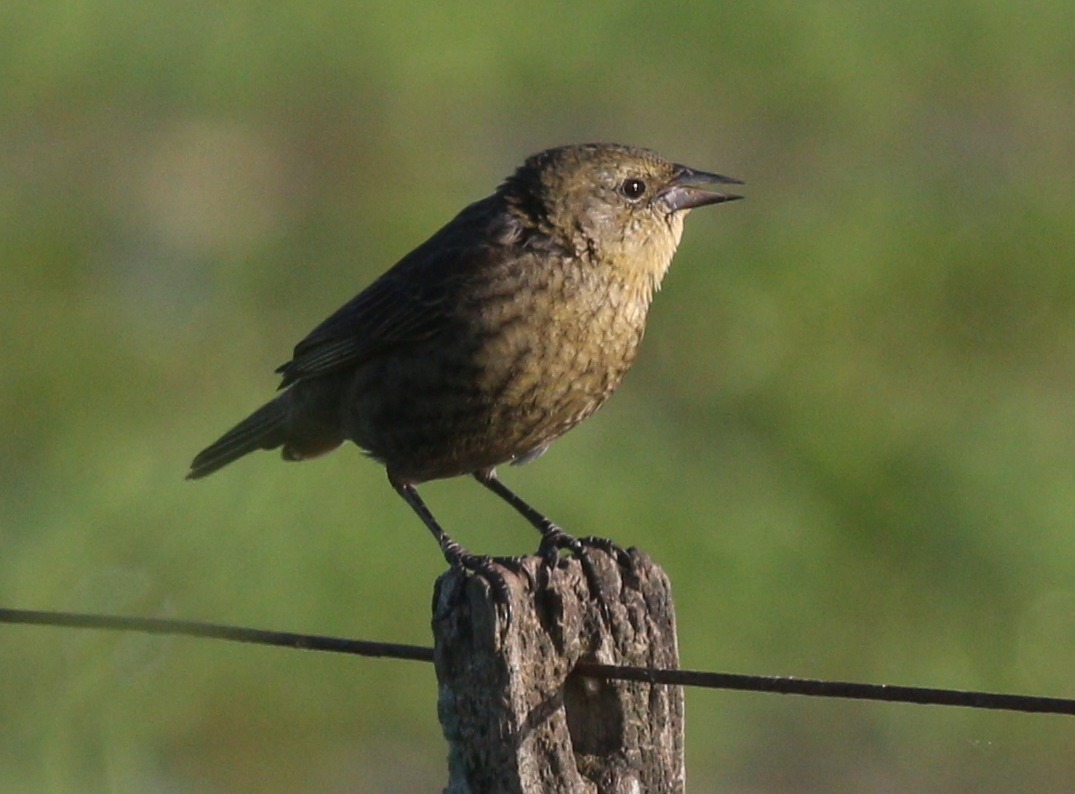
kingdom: Animalia
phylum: Chordata
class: Aves
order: Passeriformes
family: Icteridae
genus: Chrysomus
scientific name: Chrysomus ruficapillus
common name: Chestnut-capped blackbird
